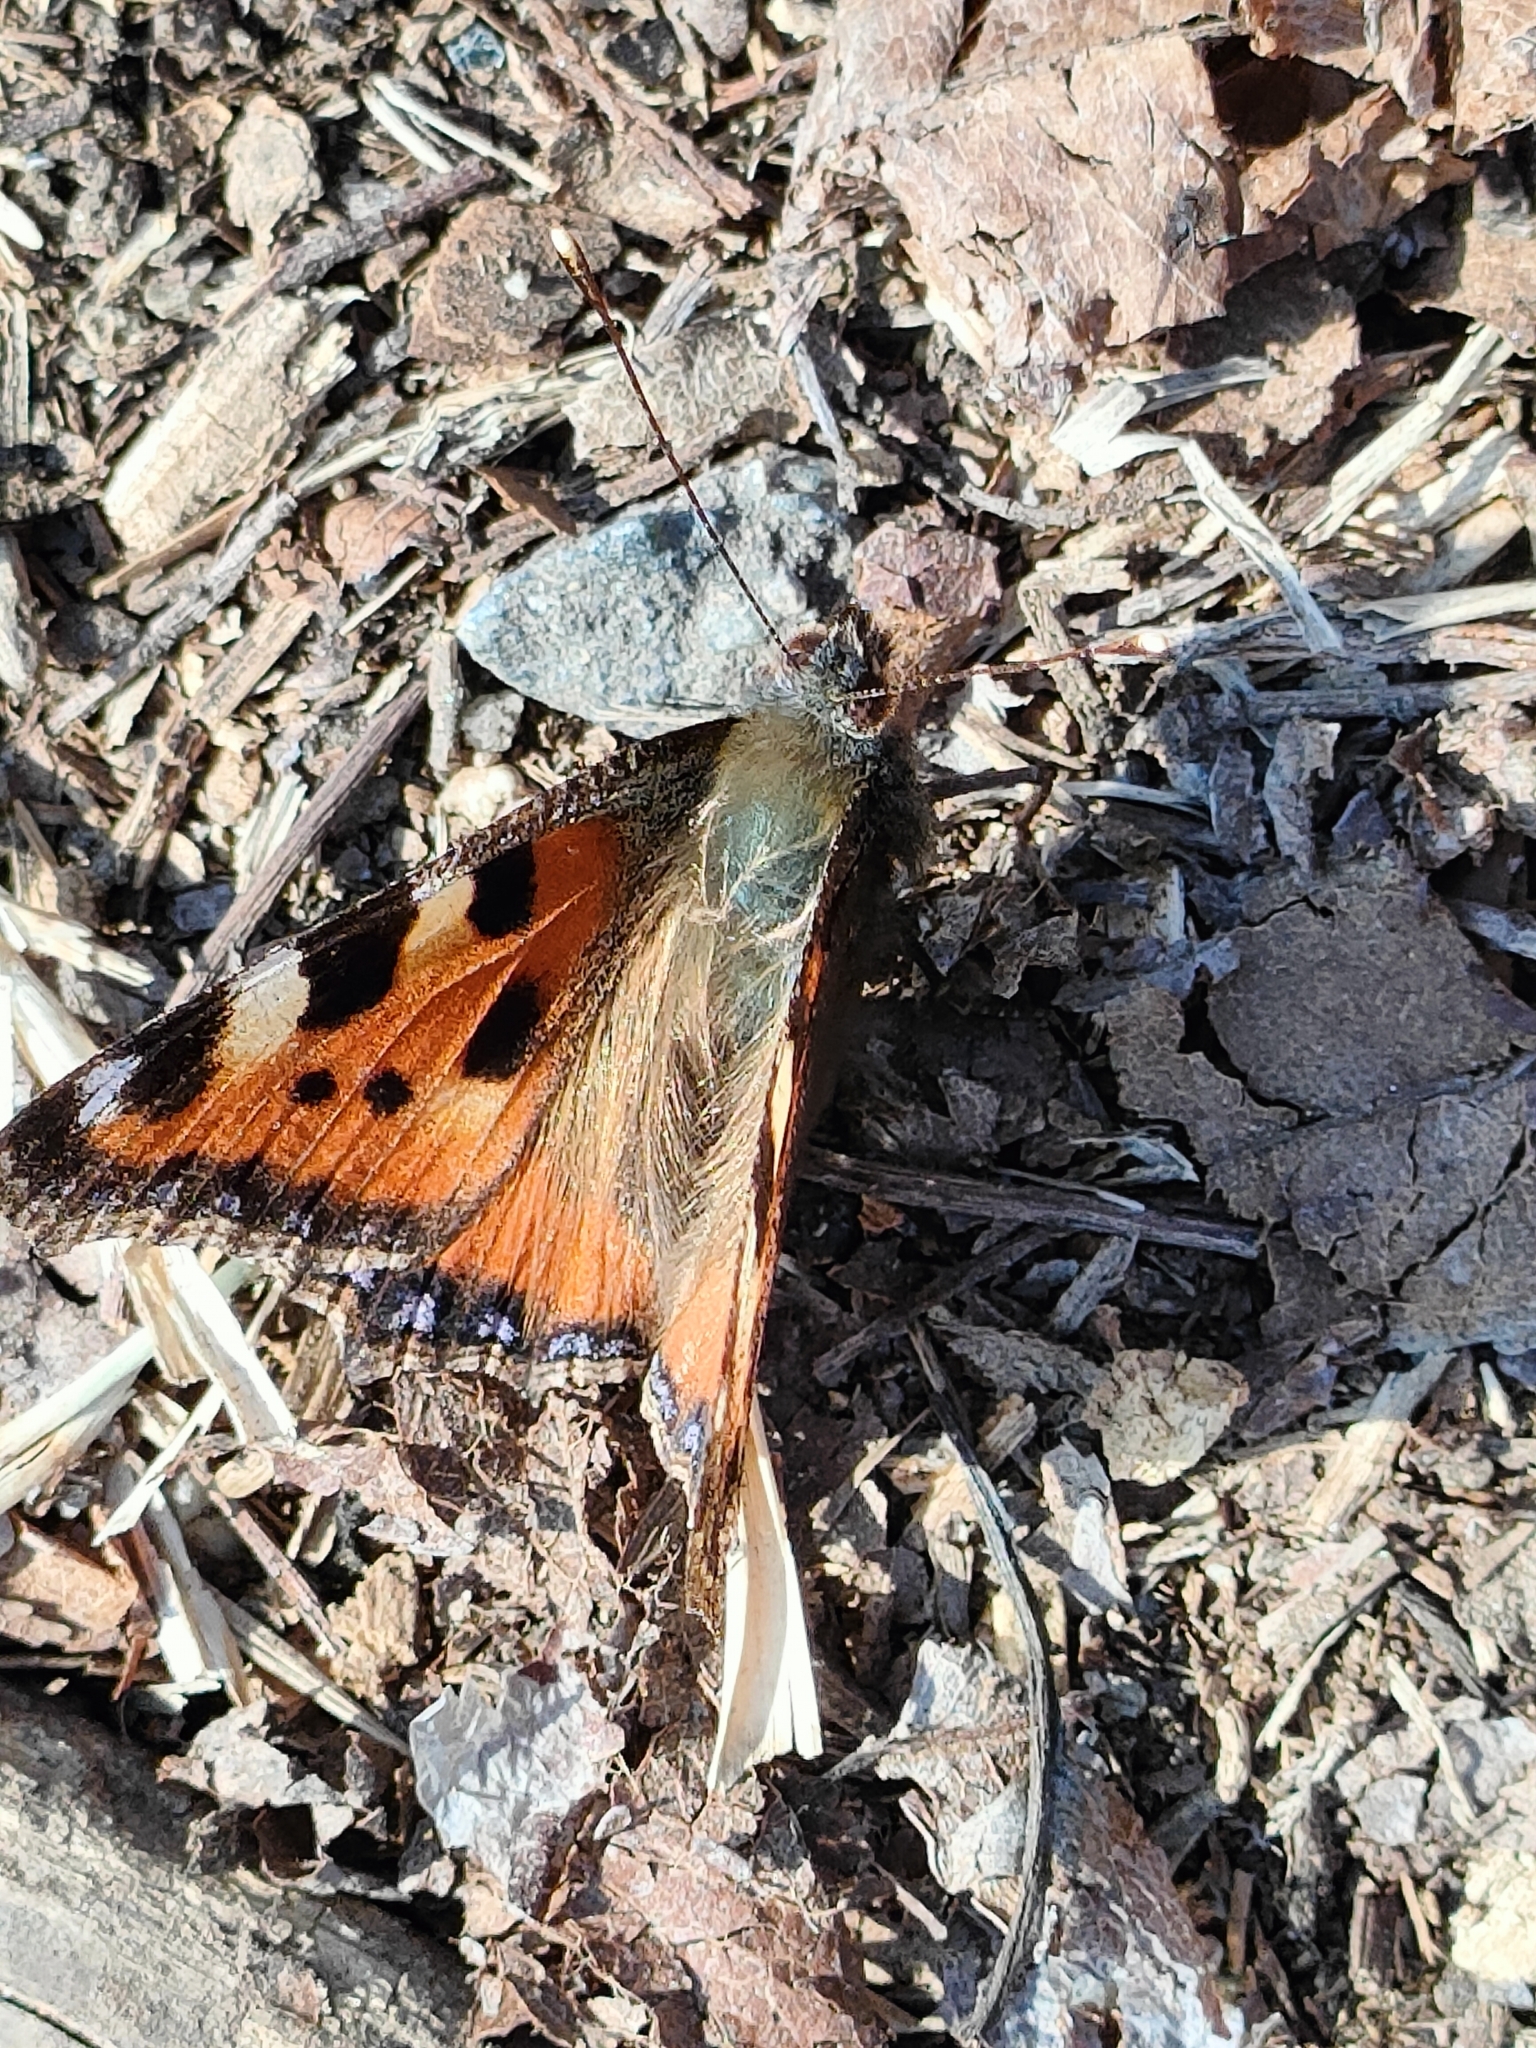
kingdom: Animalia
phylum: Arthropoda
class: Insecta
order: Lepidoptera
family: Nymphalidae
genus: Aglais
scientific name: Aglais urticae
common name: Small tortoiseshell
